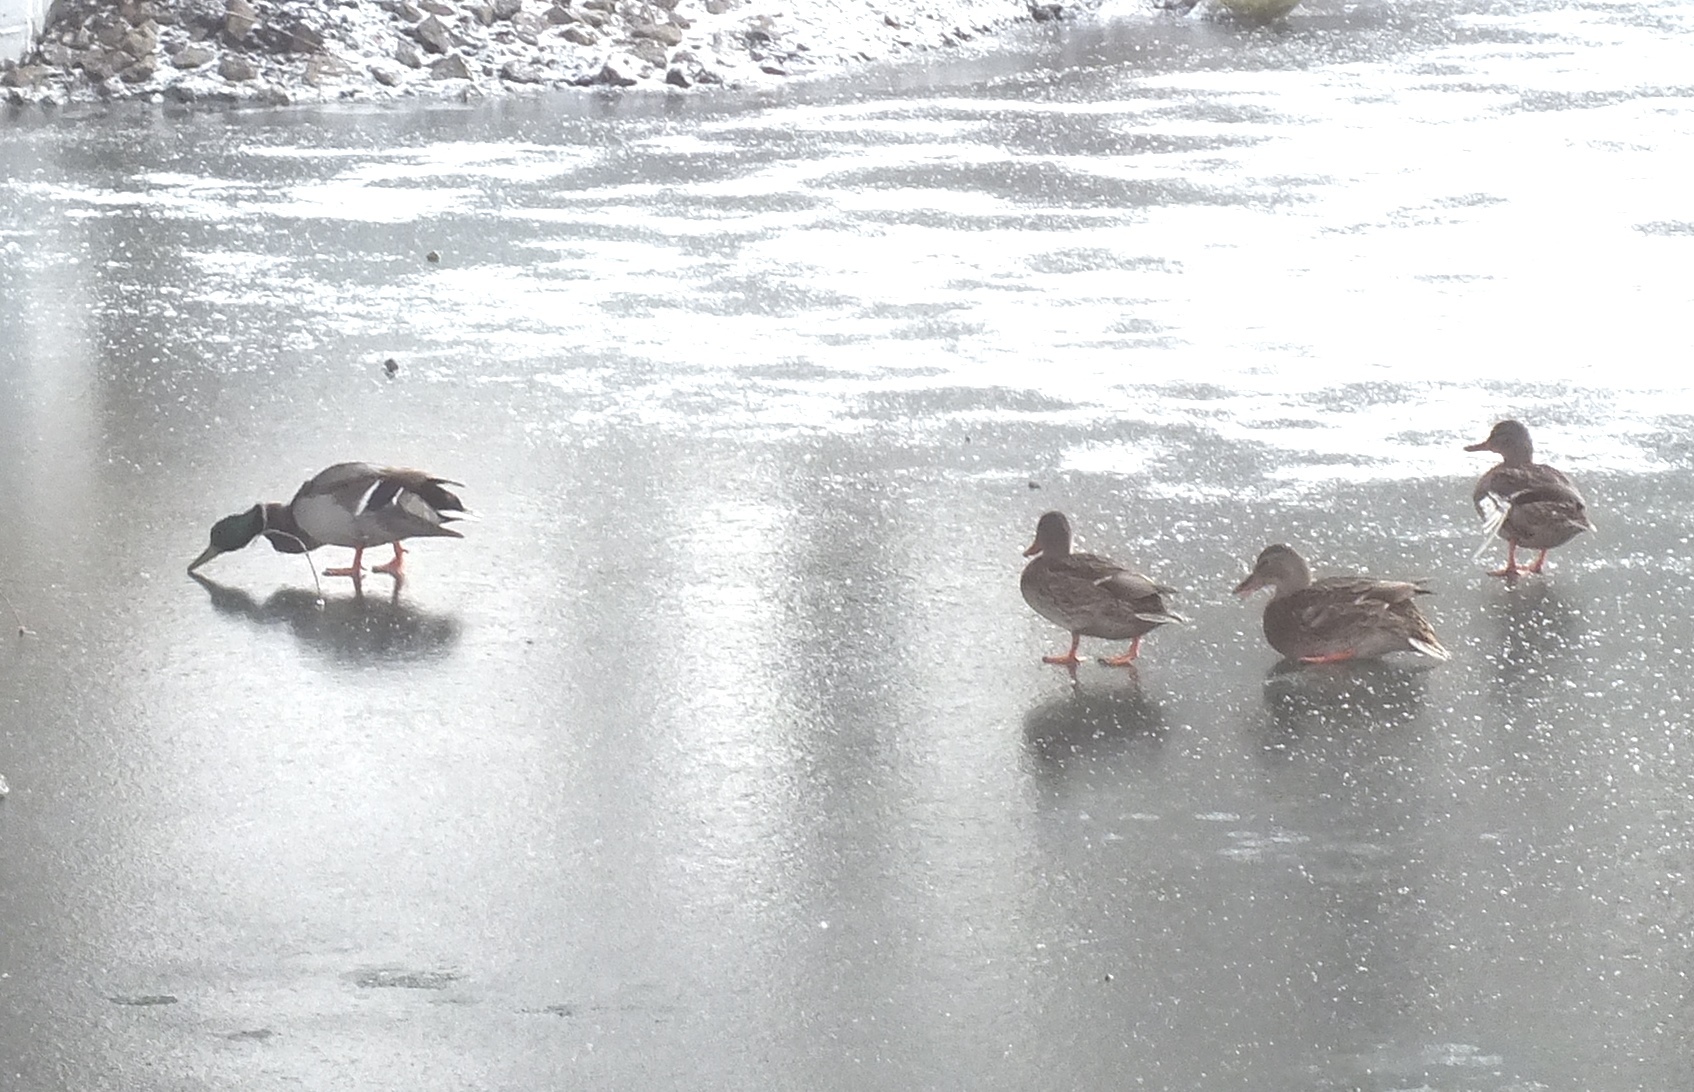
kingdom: Animalia
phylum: Chordata
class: Aves
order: Anseriformes
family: Anatidae
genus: Anas
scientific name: Anas platyrhynchos
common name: Mallard
